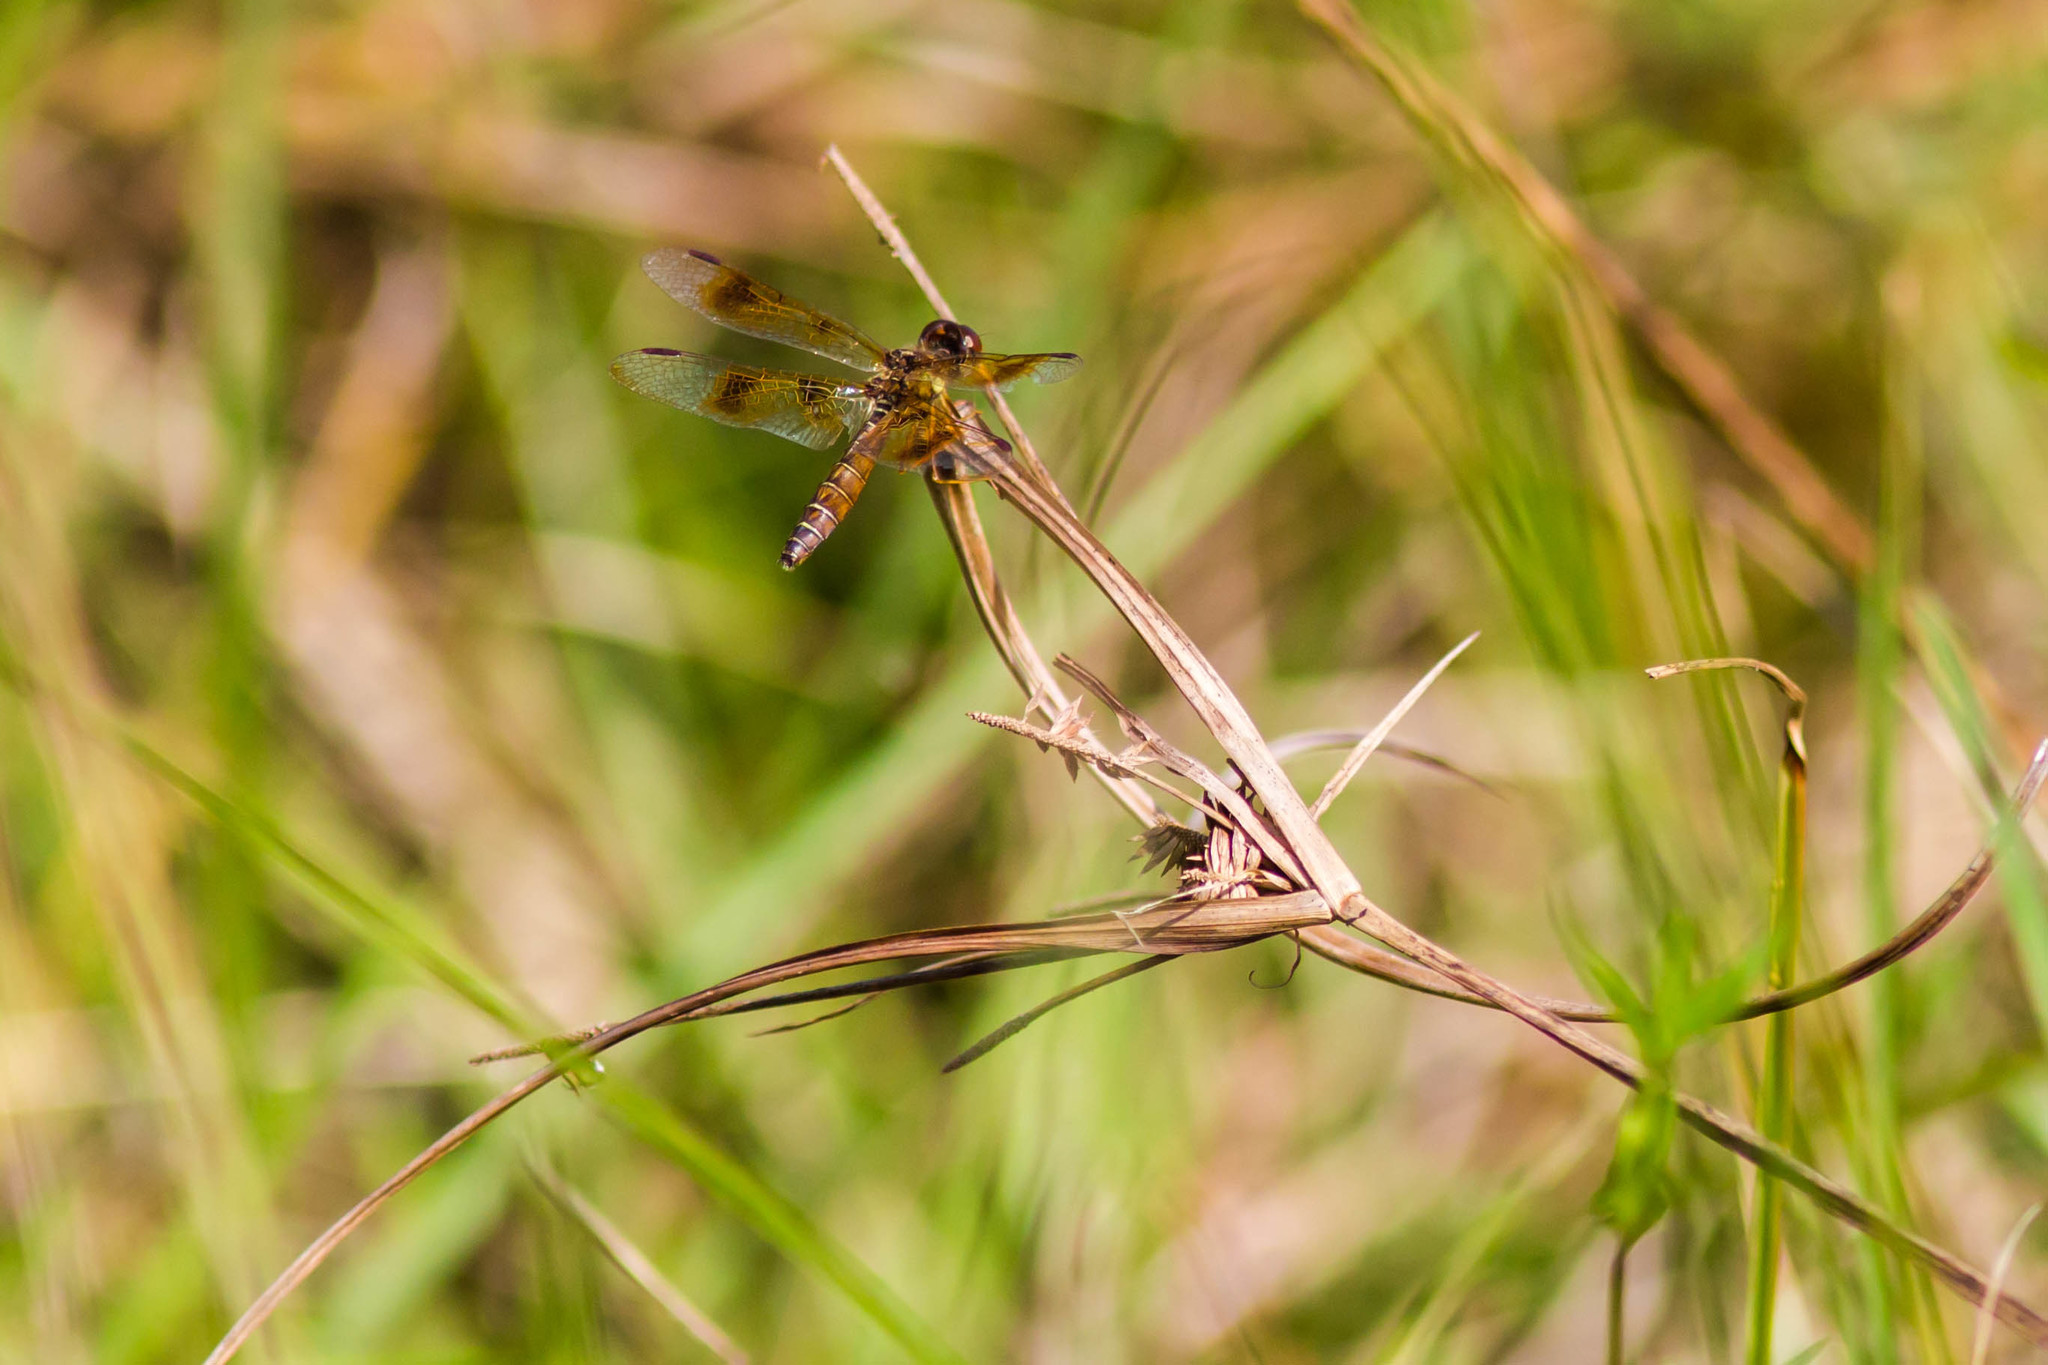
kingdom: Animalia
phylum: Arthropoda
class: Insecta
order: Odonata
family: Libellulidae
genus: Perithemis
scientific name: Perithemis tenera
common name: Eastern amberwing
